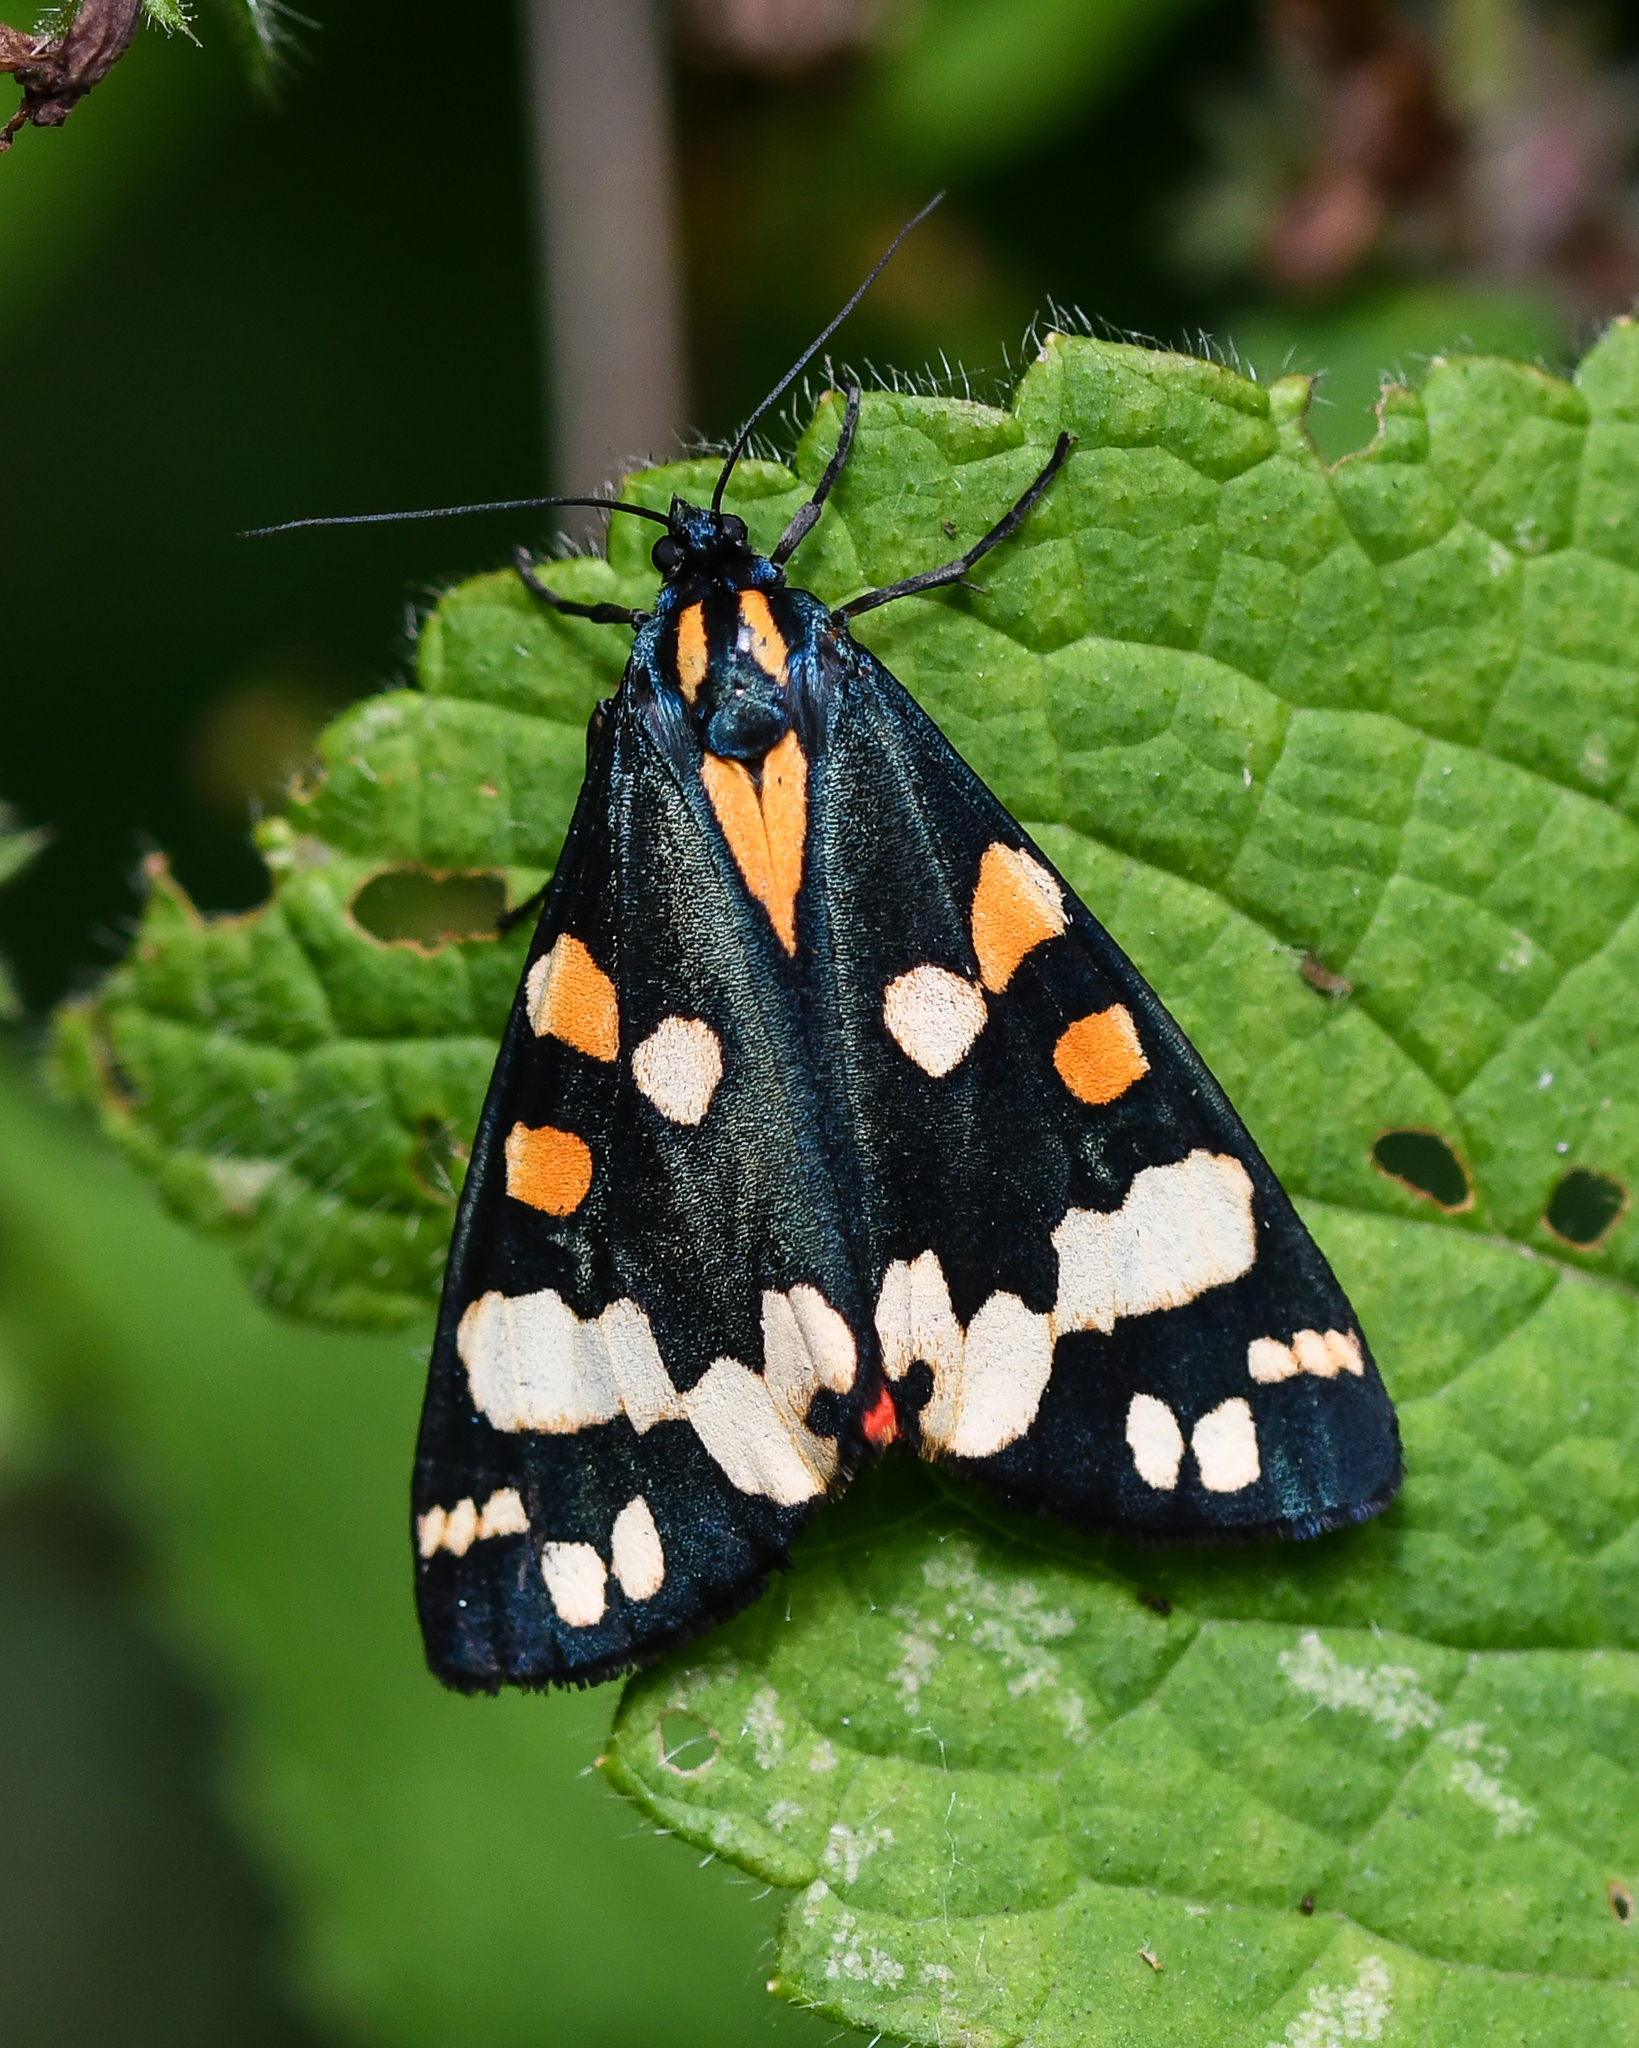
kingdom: Animalia
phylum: Arthropoda
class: Insecta
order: Lepidoptera
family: Erebidae
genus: Callimorpha
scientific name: Callimorpha dominula
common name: Scarlet tiger
